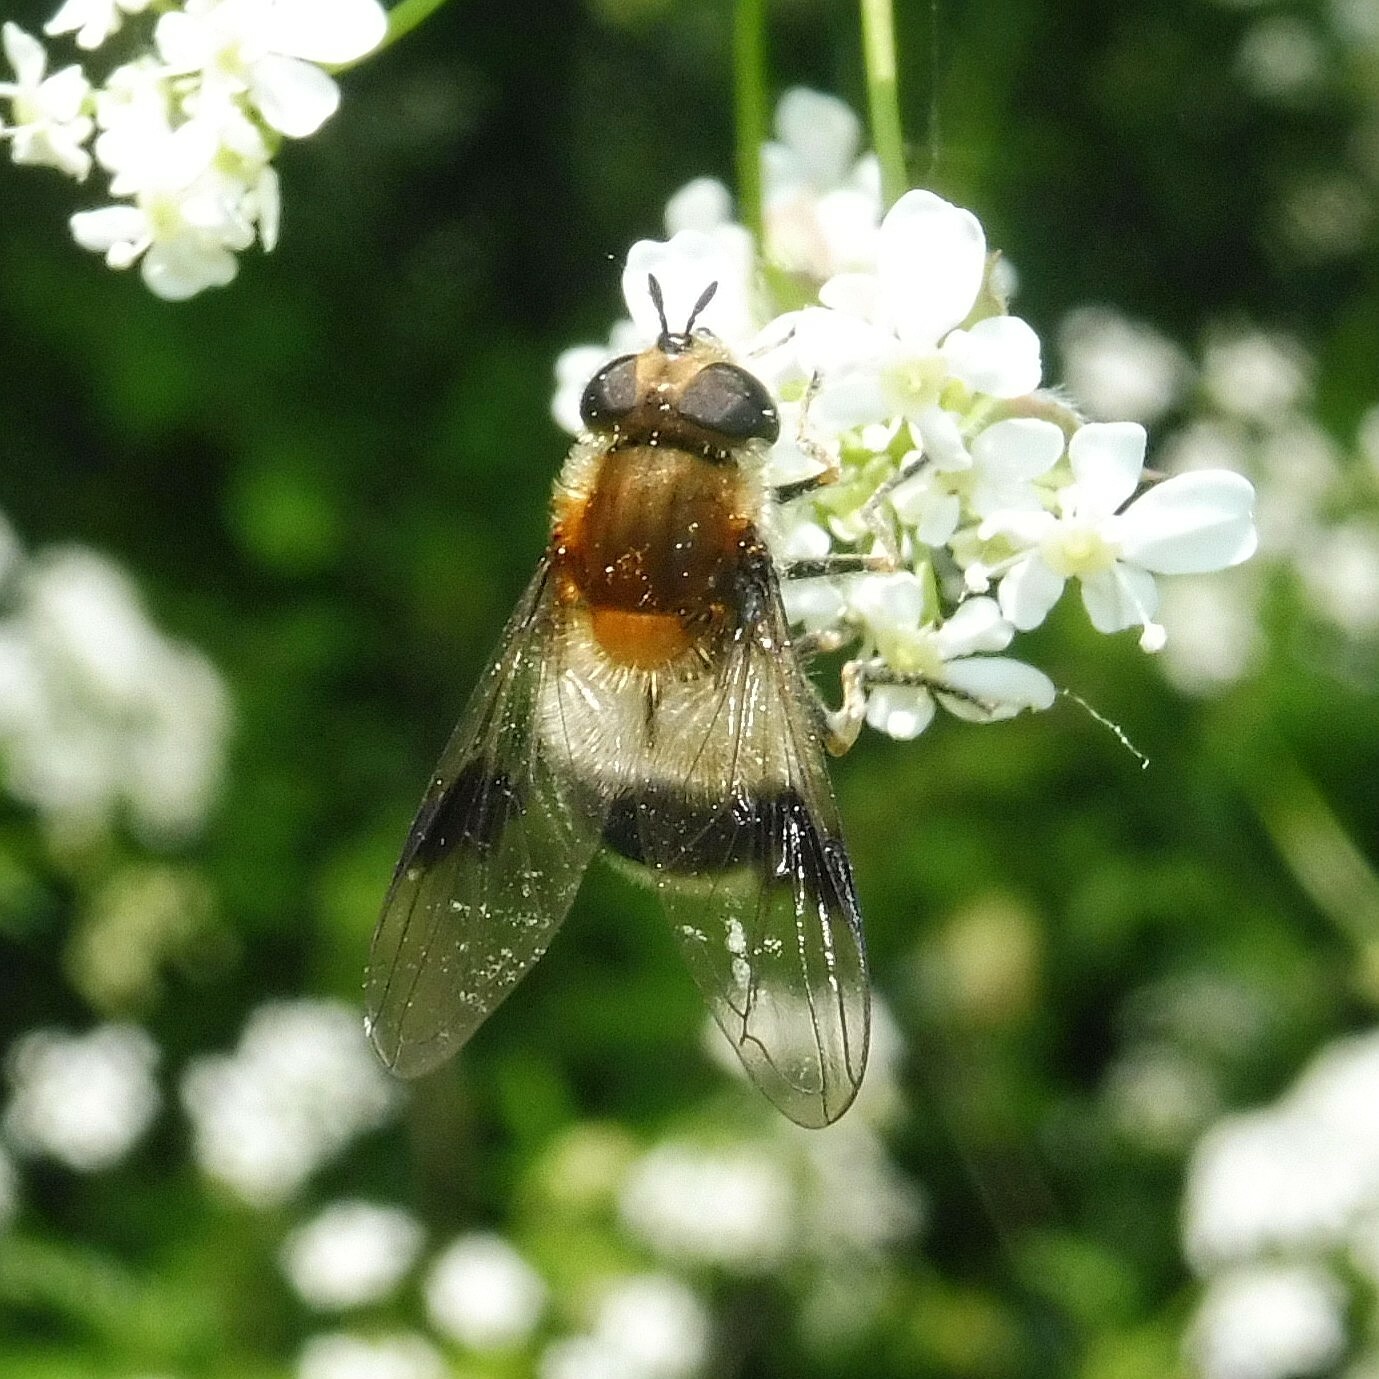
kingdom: Animalia
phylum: Arthropoda
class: Insecta
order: Diptera
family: Syrphidae
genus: Leucozona
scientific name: Leucozona lucorum
